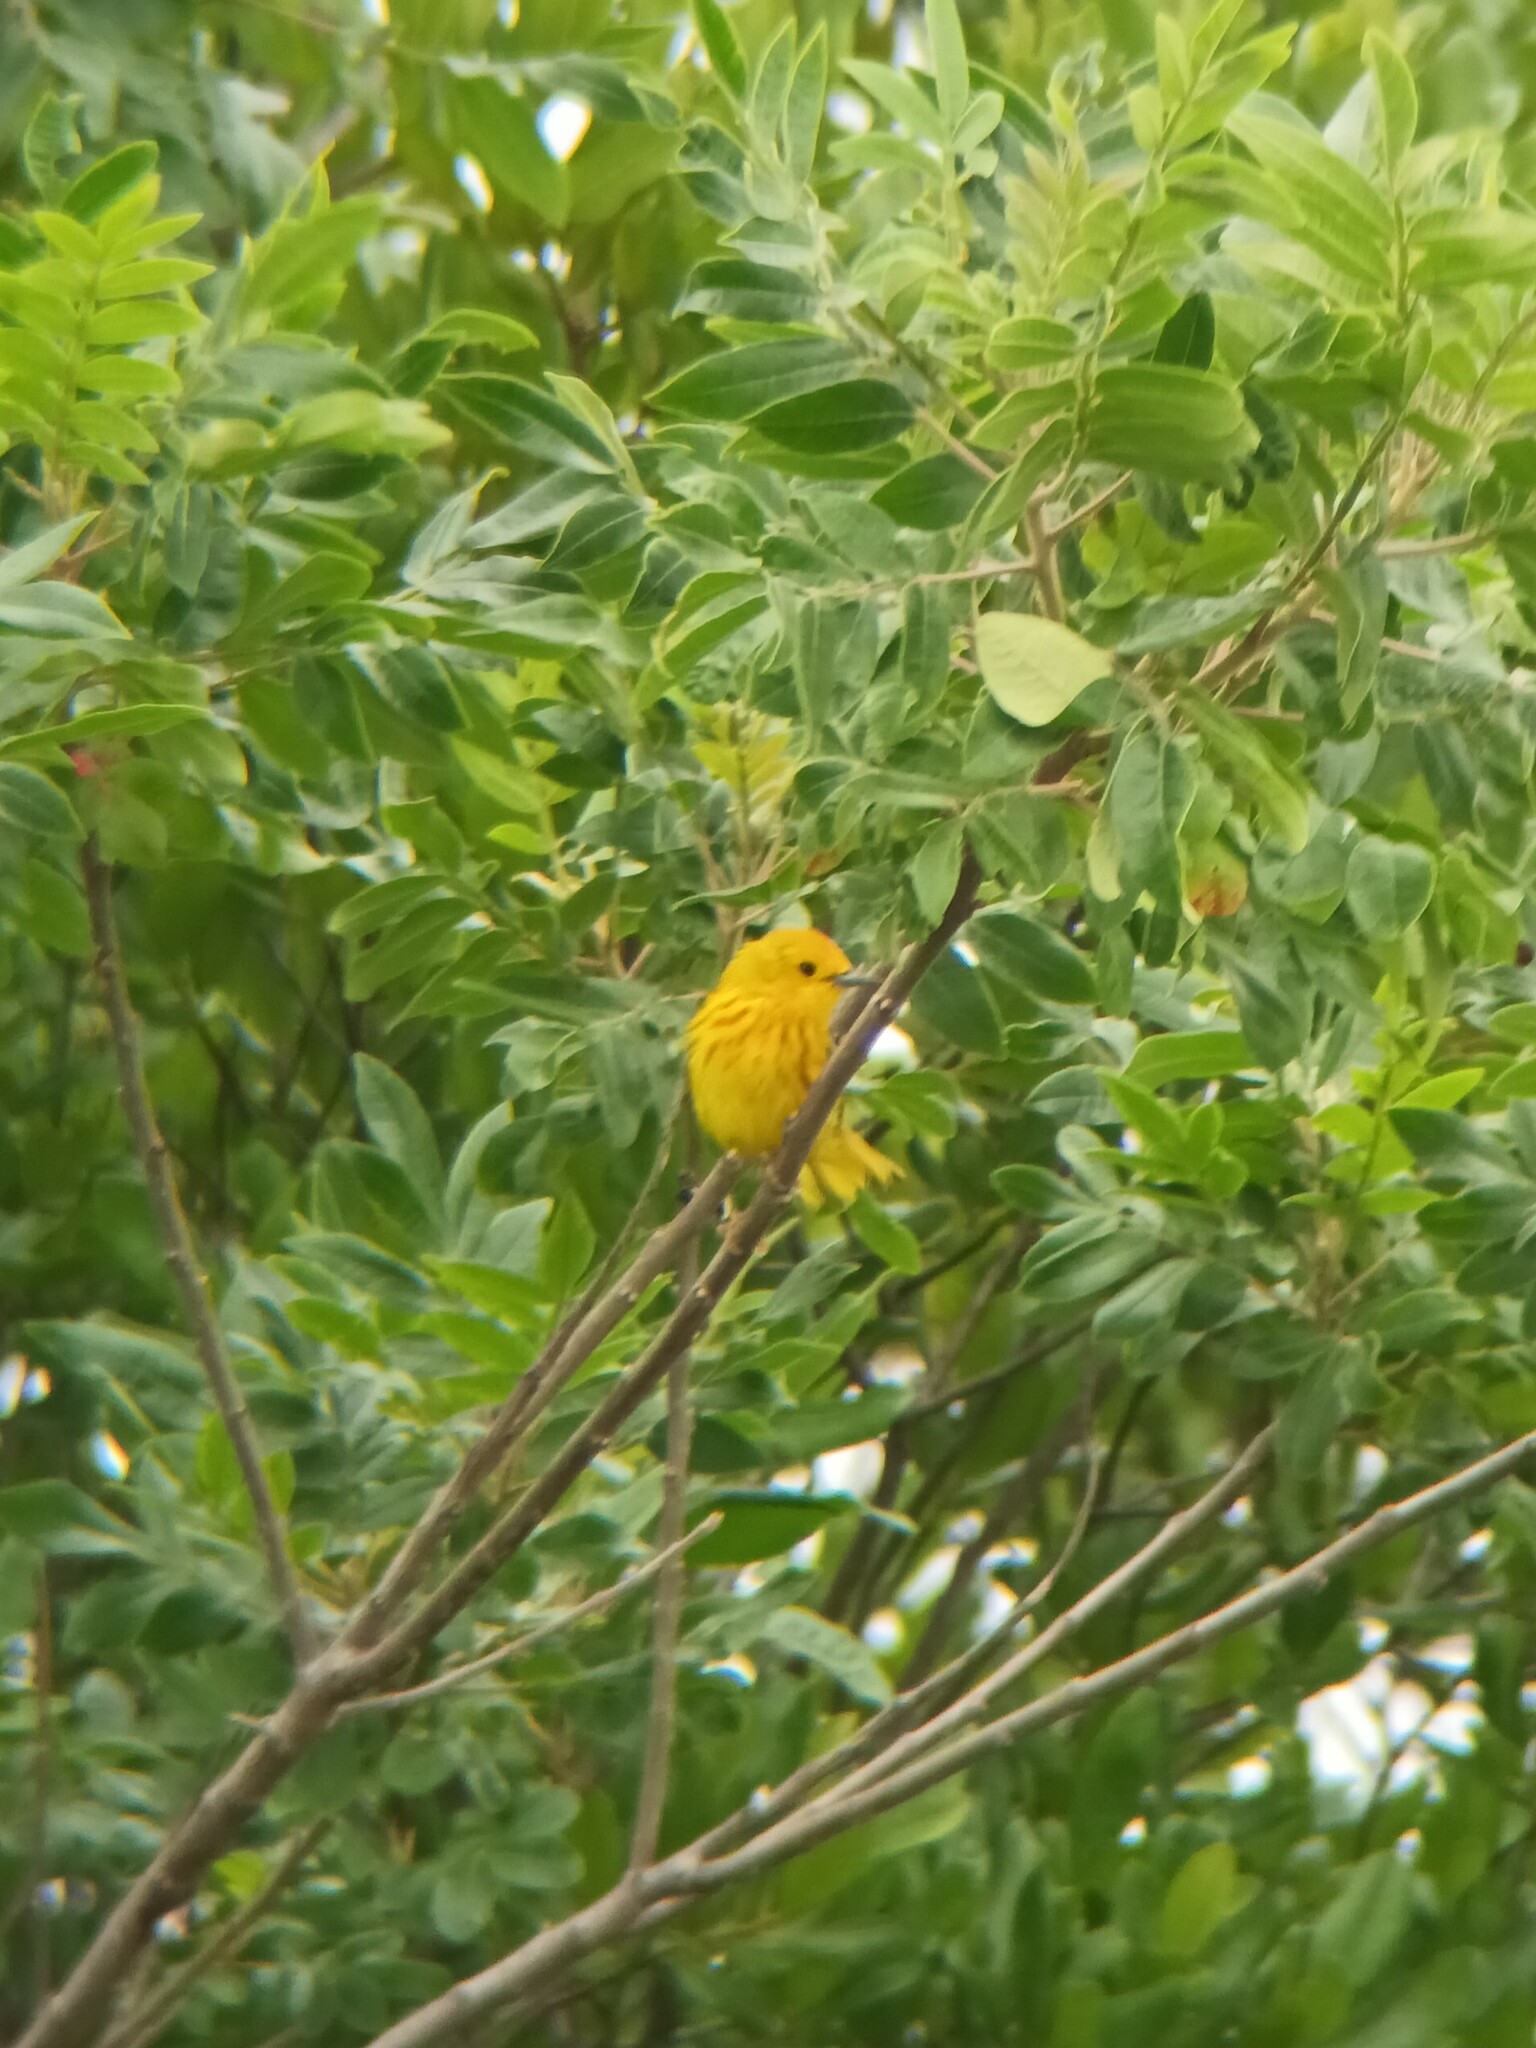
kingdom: Animalia
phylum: Chordata
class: Aves
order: Passeriformes
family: Parulidae
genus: Setophaga
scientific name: Setophaga petechia
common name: Yellow warbler
